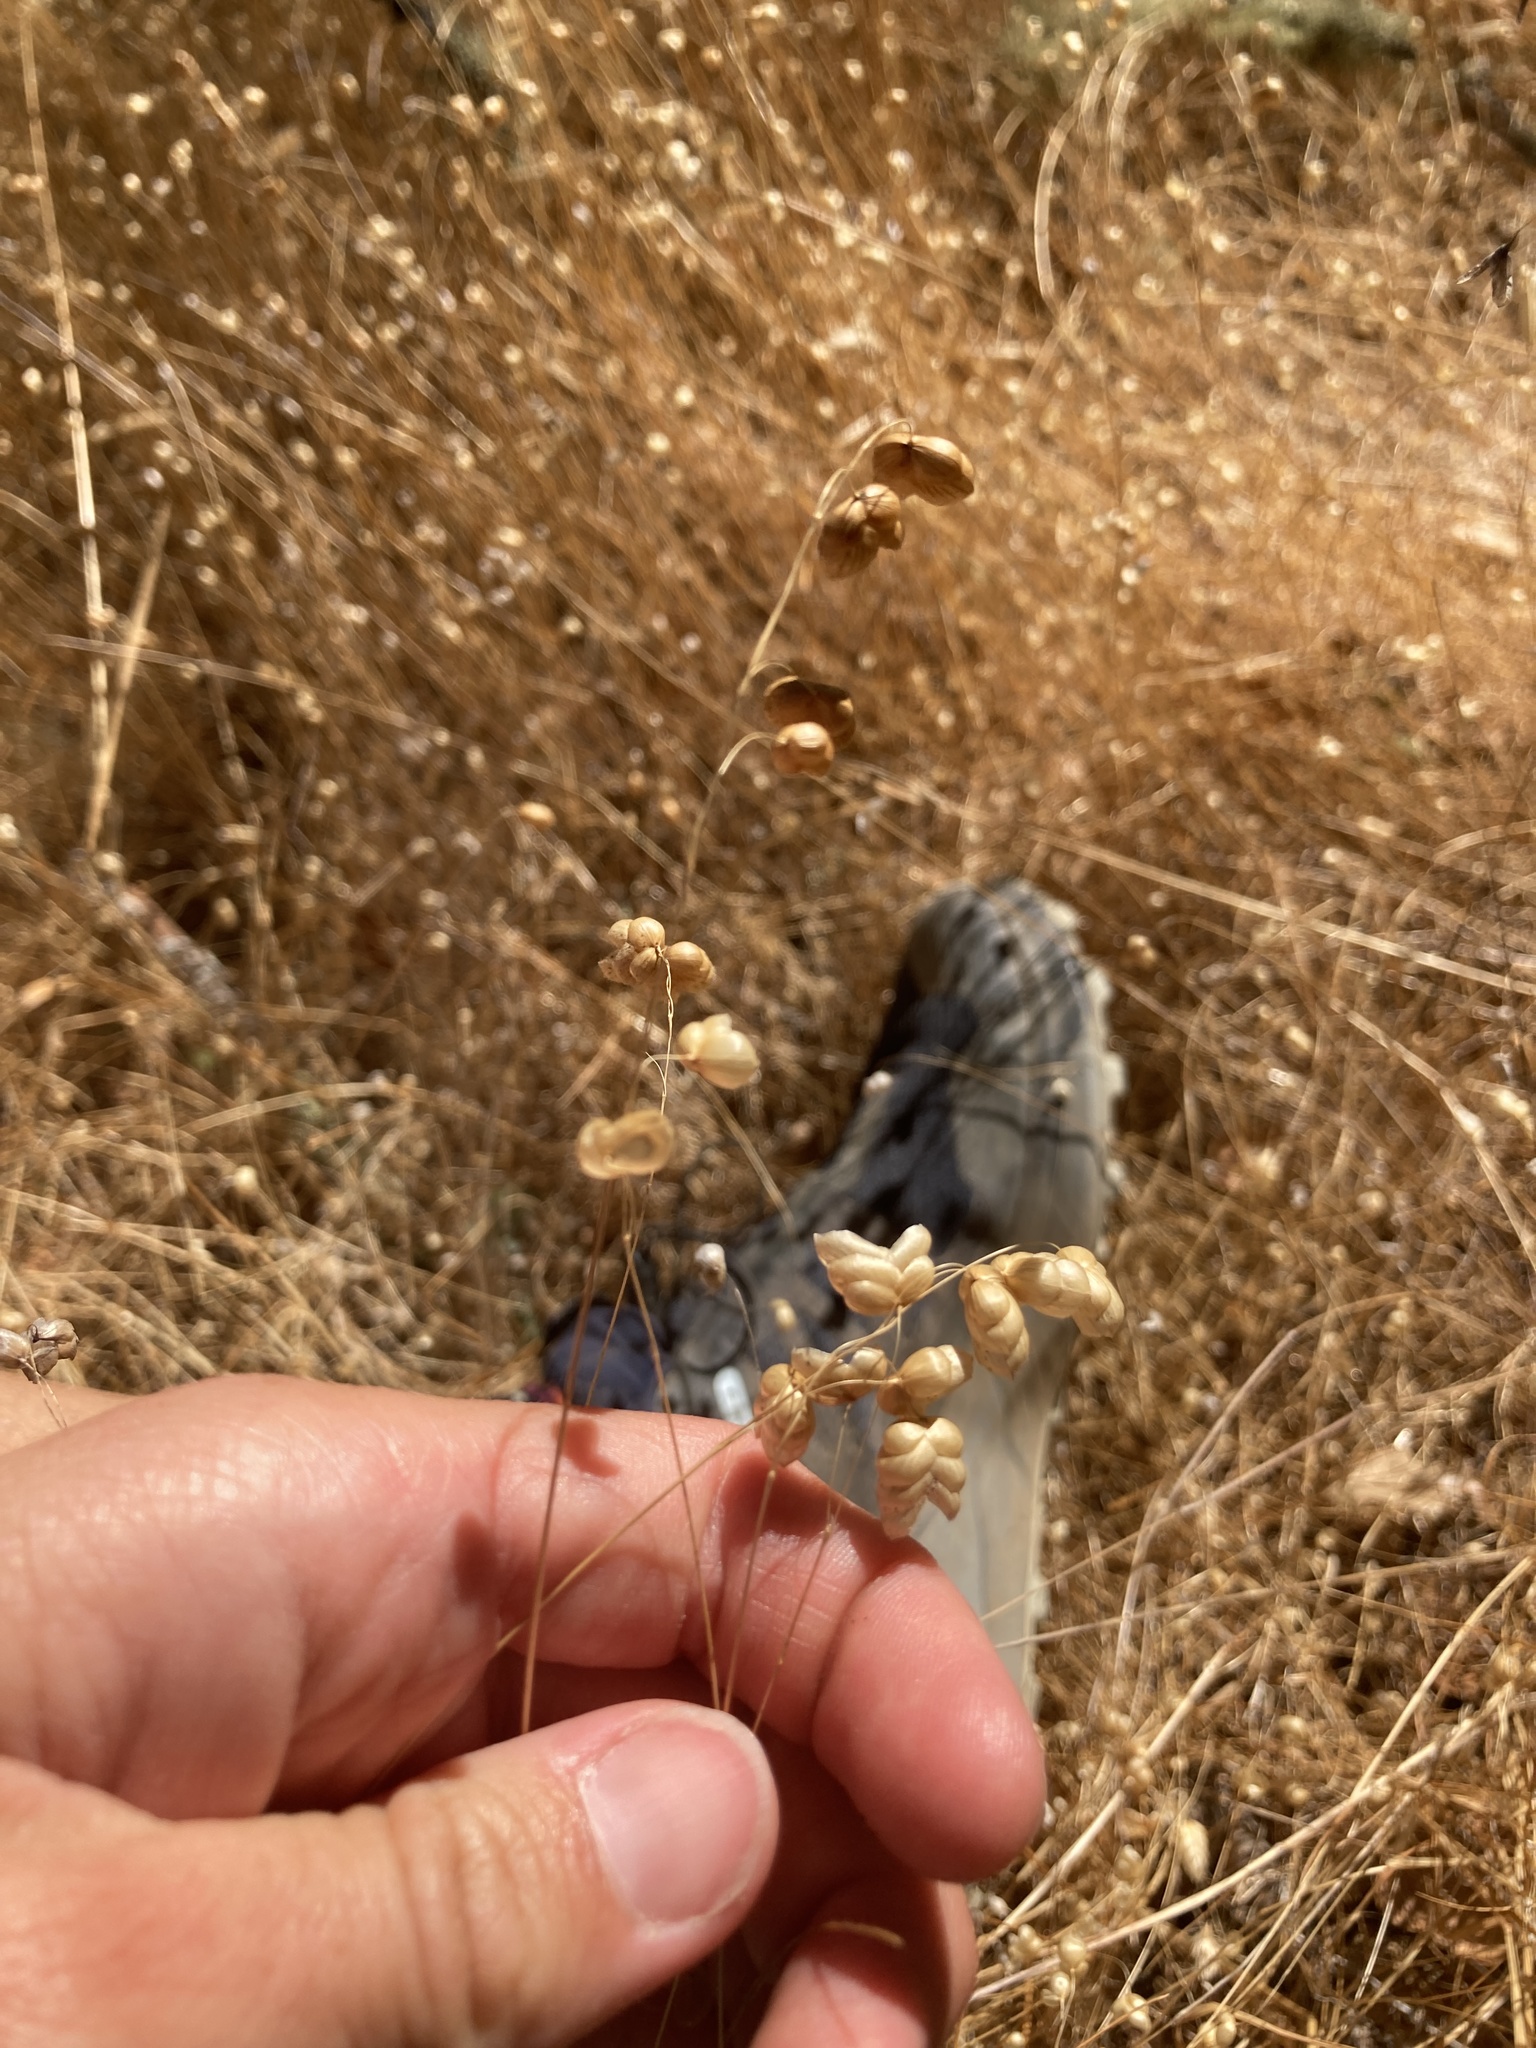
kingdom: Plantae
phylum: Tracheophyta
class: Liliopsida
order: Poales
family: Poaceae
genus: Briza
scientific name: Briza maxima
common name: Big quakinggrass
